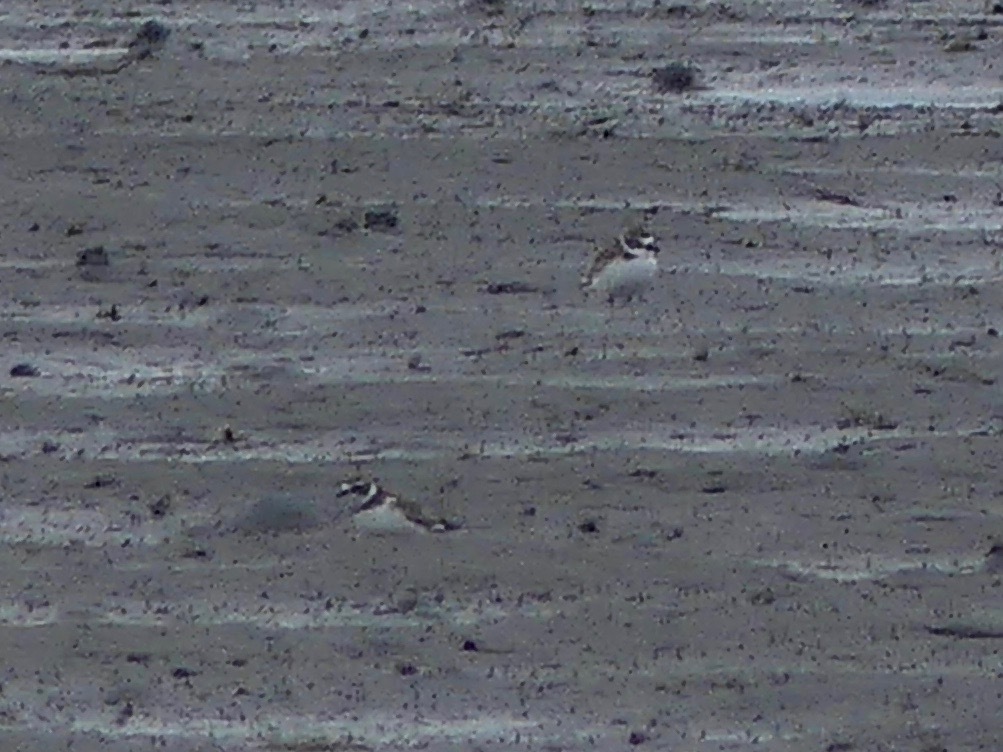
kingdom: Animalia
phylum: Chordata
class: Aves
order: Charadriiformes
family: Charadriidae
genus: Charadrius
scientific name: Charadrius semipalmatus
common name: Semipalmated plover
